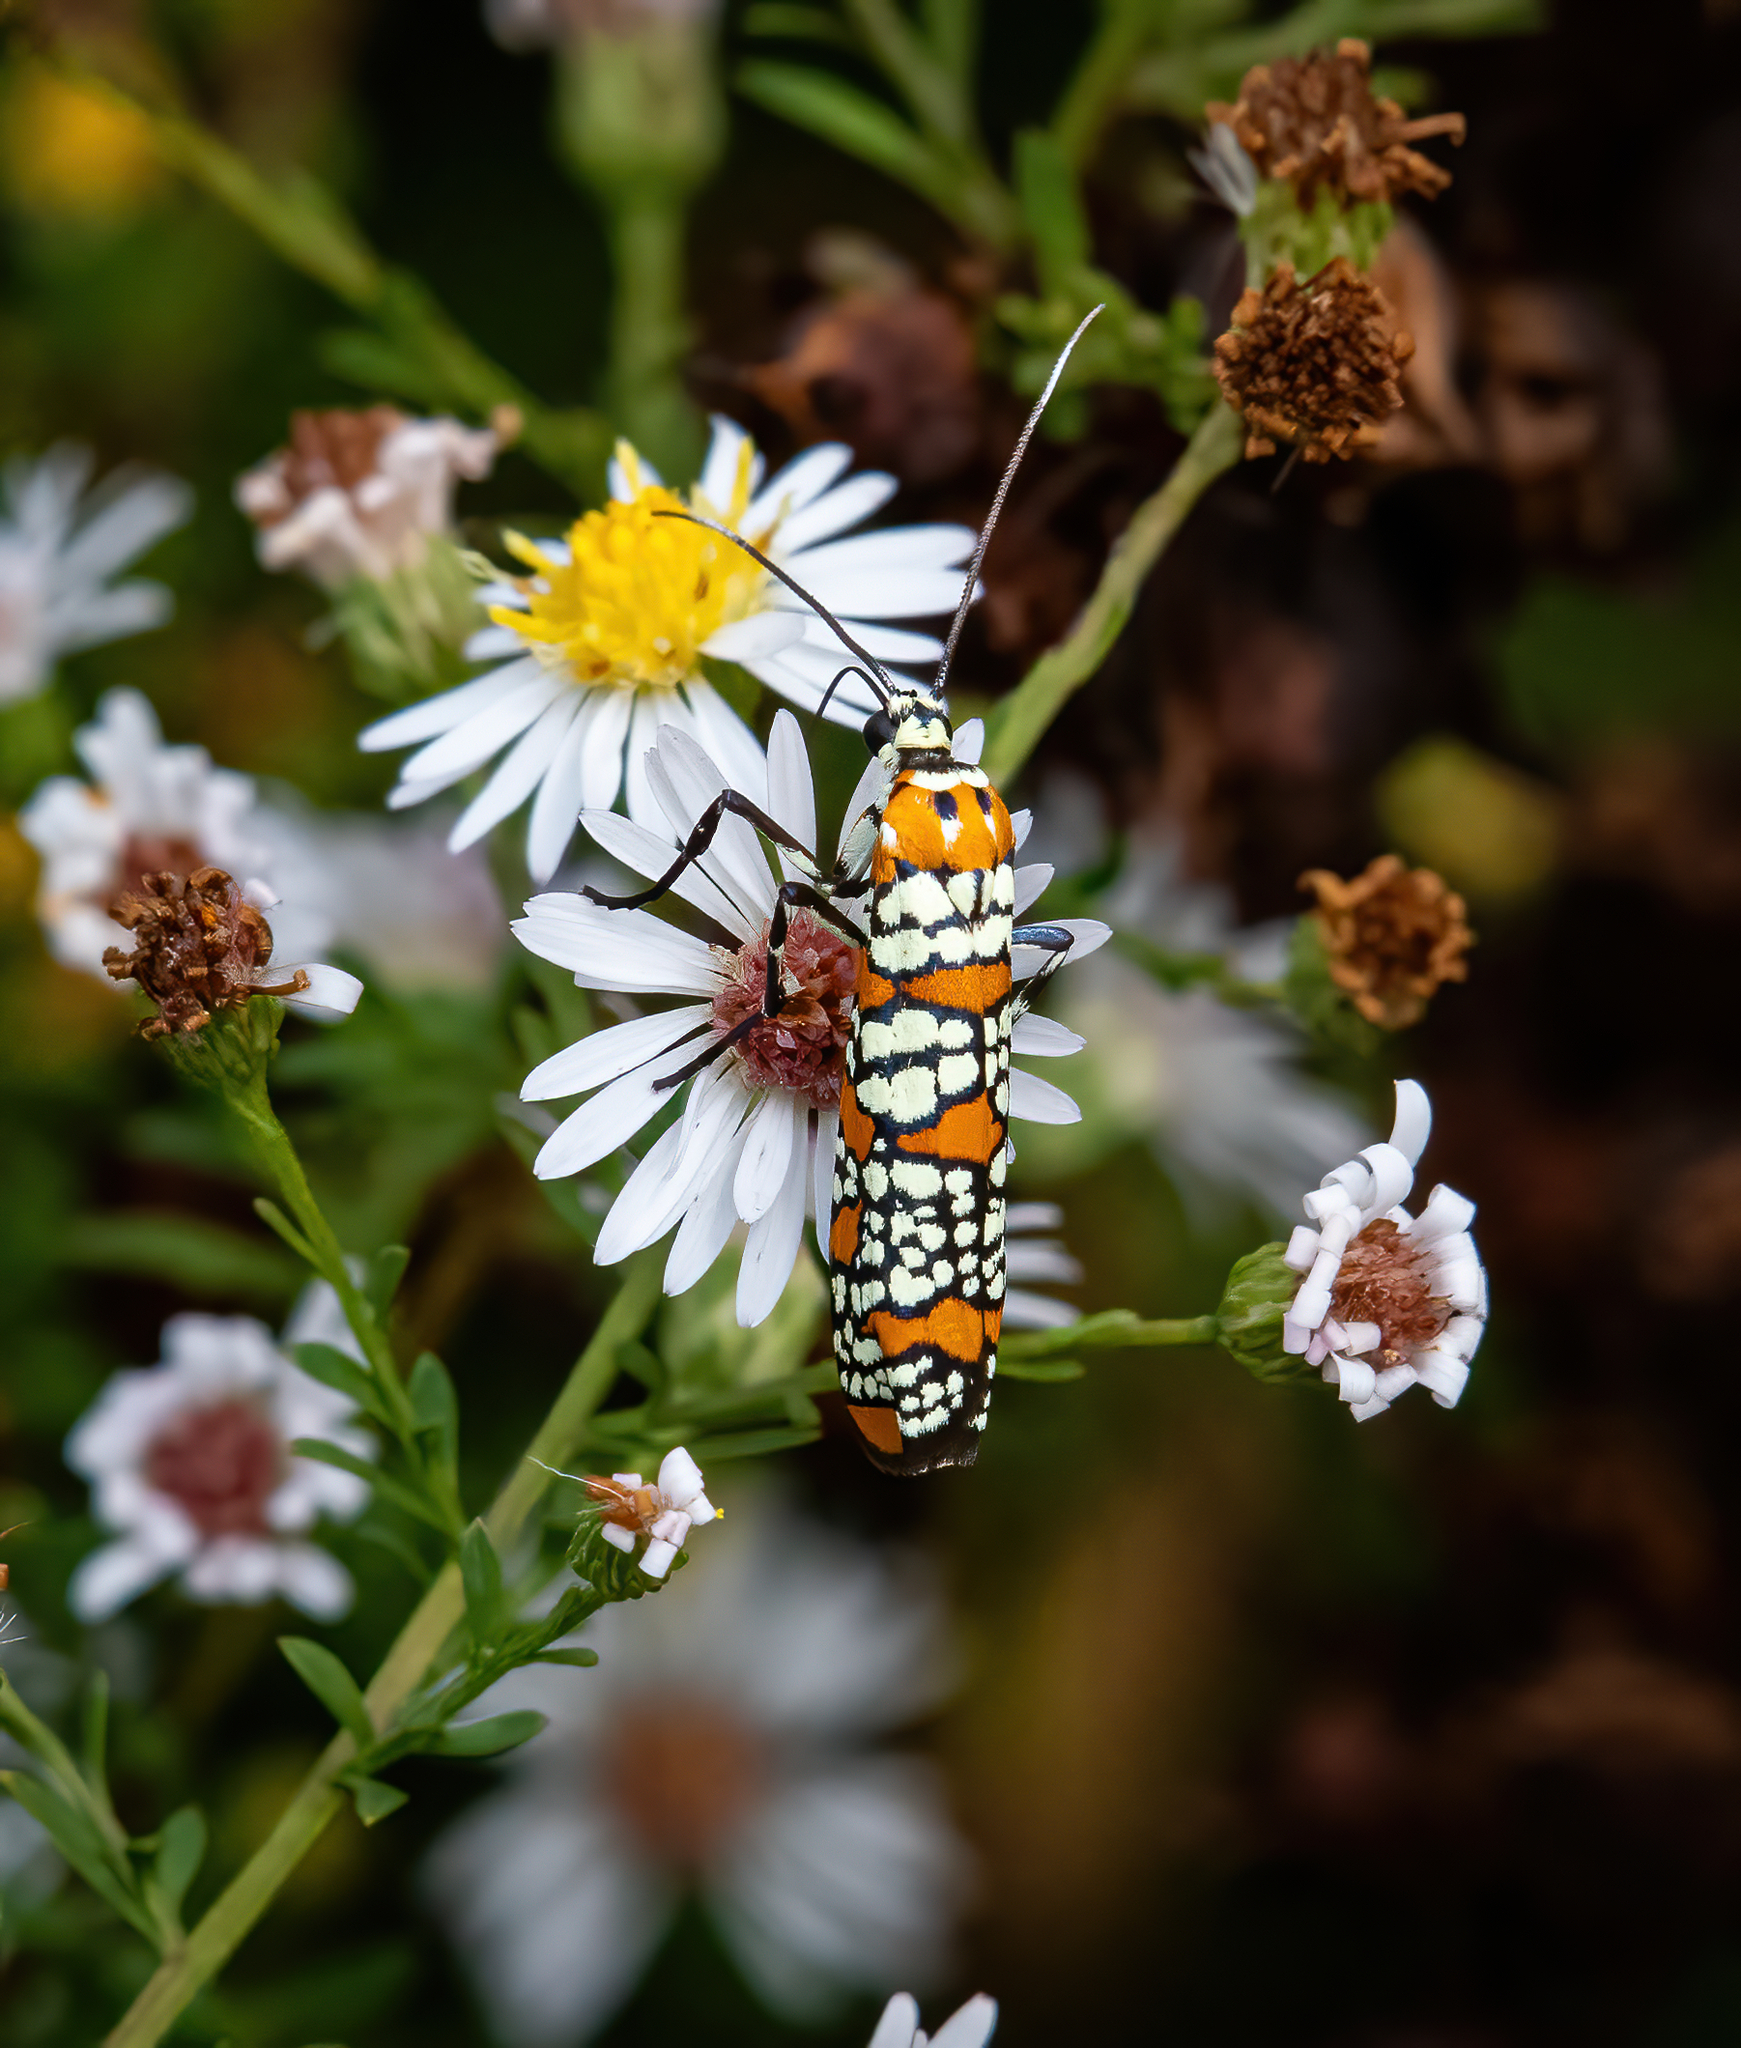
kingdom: Animalia
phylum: Arthropoda
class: Insecta
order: Lepidoptera
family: Attevidae
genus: Atteva
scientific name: Atteva punctella
